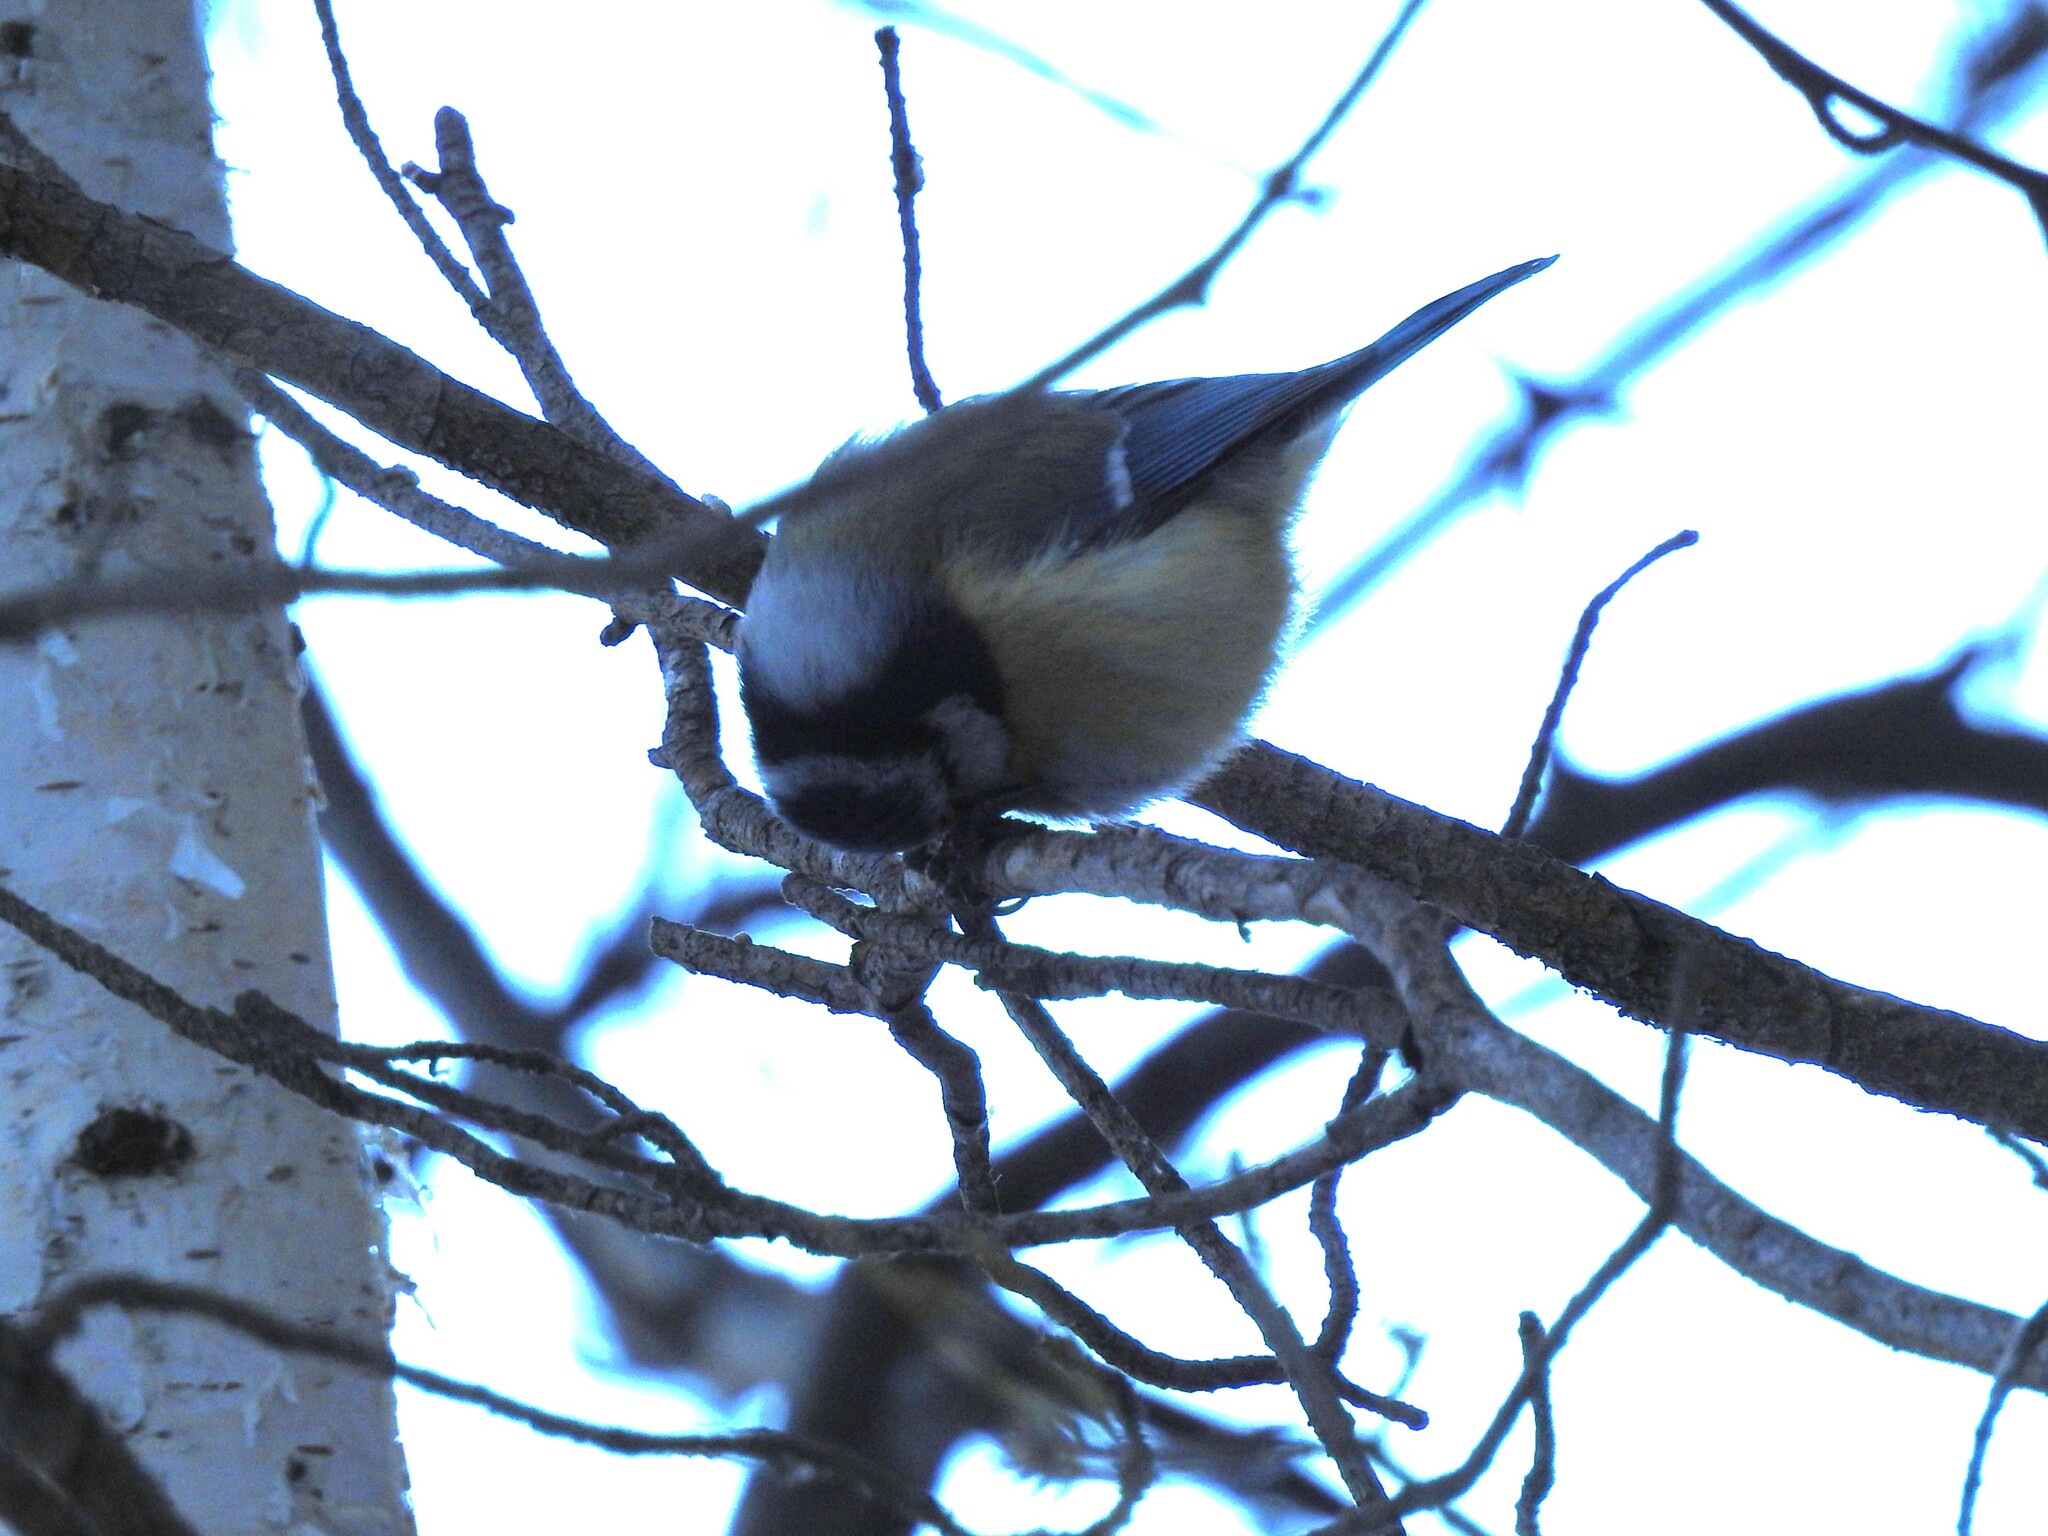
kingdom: Animalia
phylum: Chordata
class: Aves
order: Passeriformes
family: Paridae
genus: Cyanistes
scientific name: Cyanistes caeruleus
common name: Eurasian blue tit
